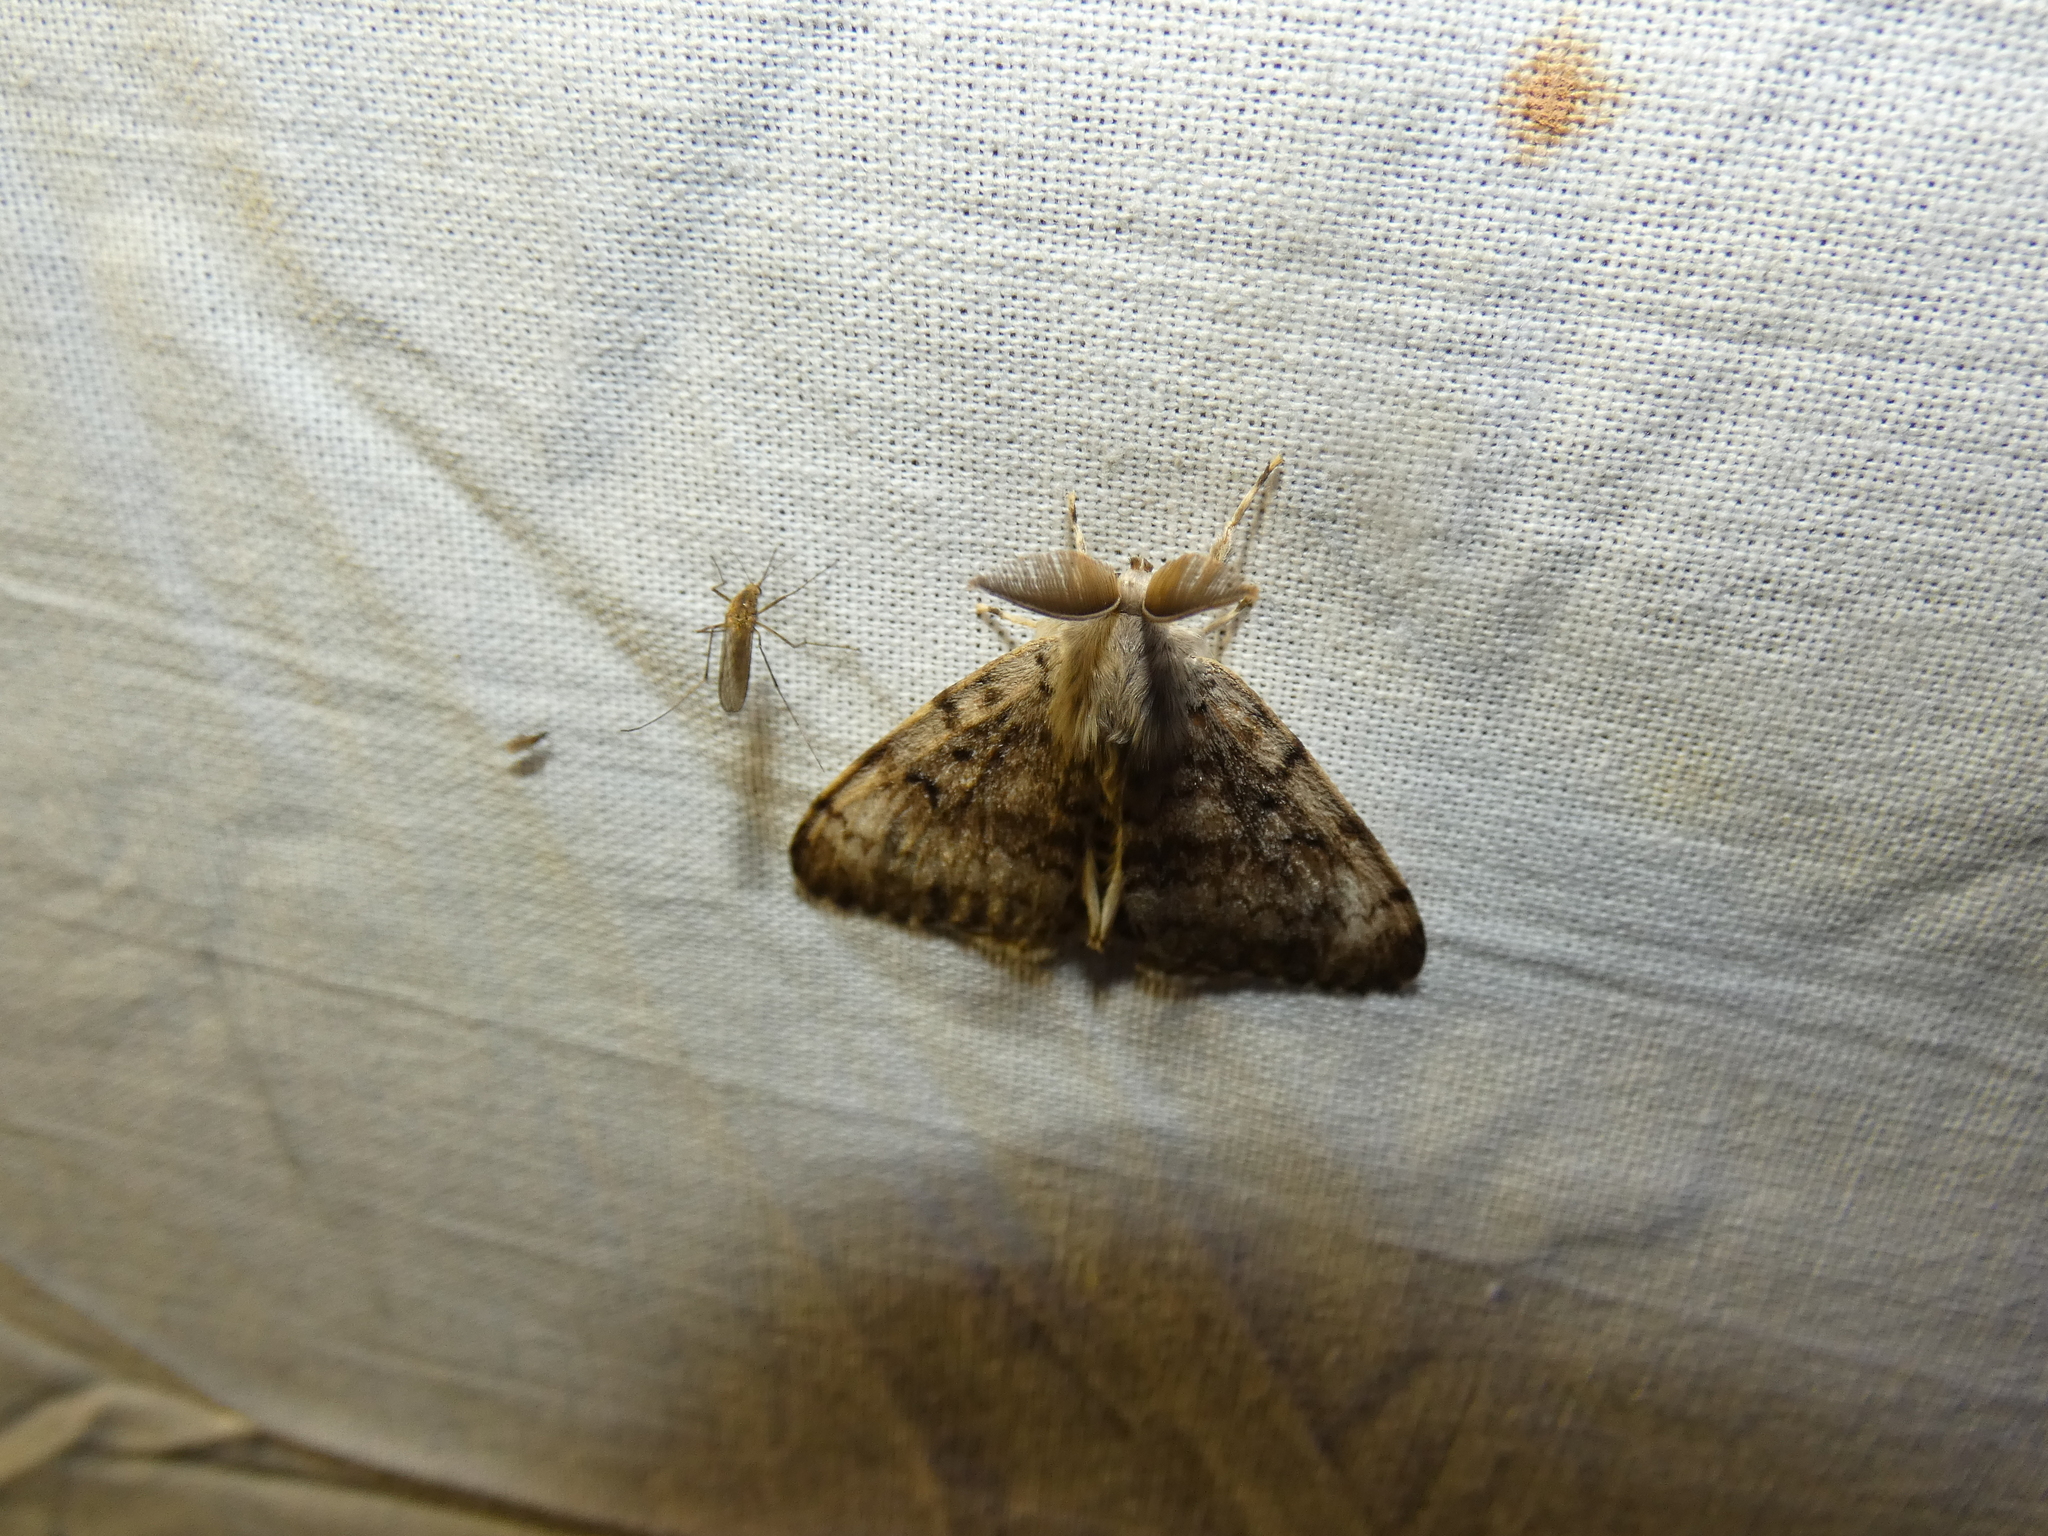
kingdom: Animalia
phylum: Arthropoda
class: Insecta
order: Lepidoptera
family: Erebidae
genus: Lymantria
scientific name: Lymantria dispar
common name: Gypsy moth
